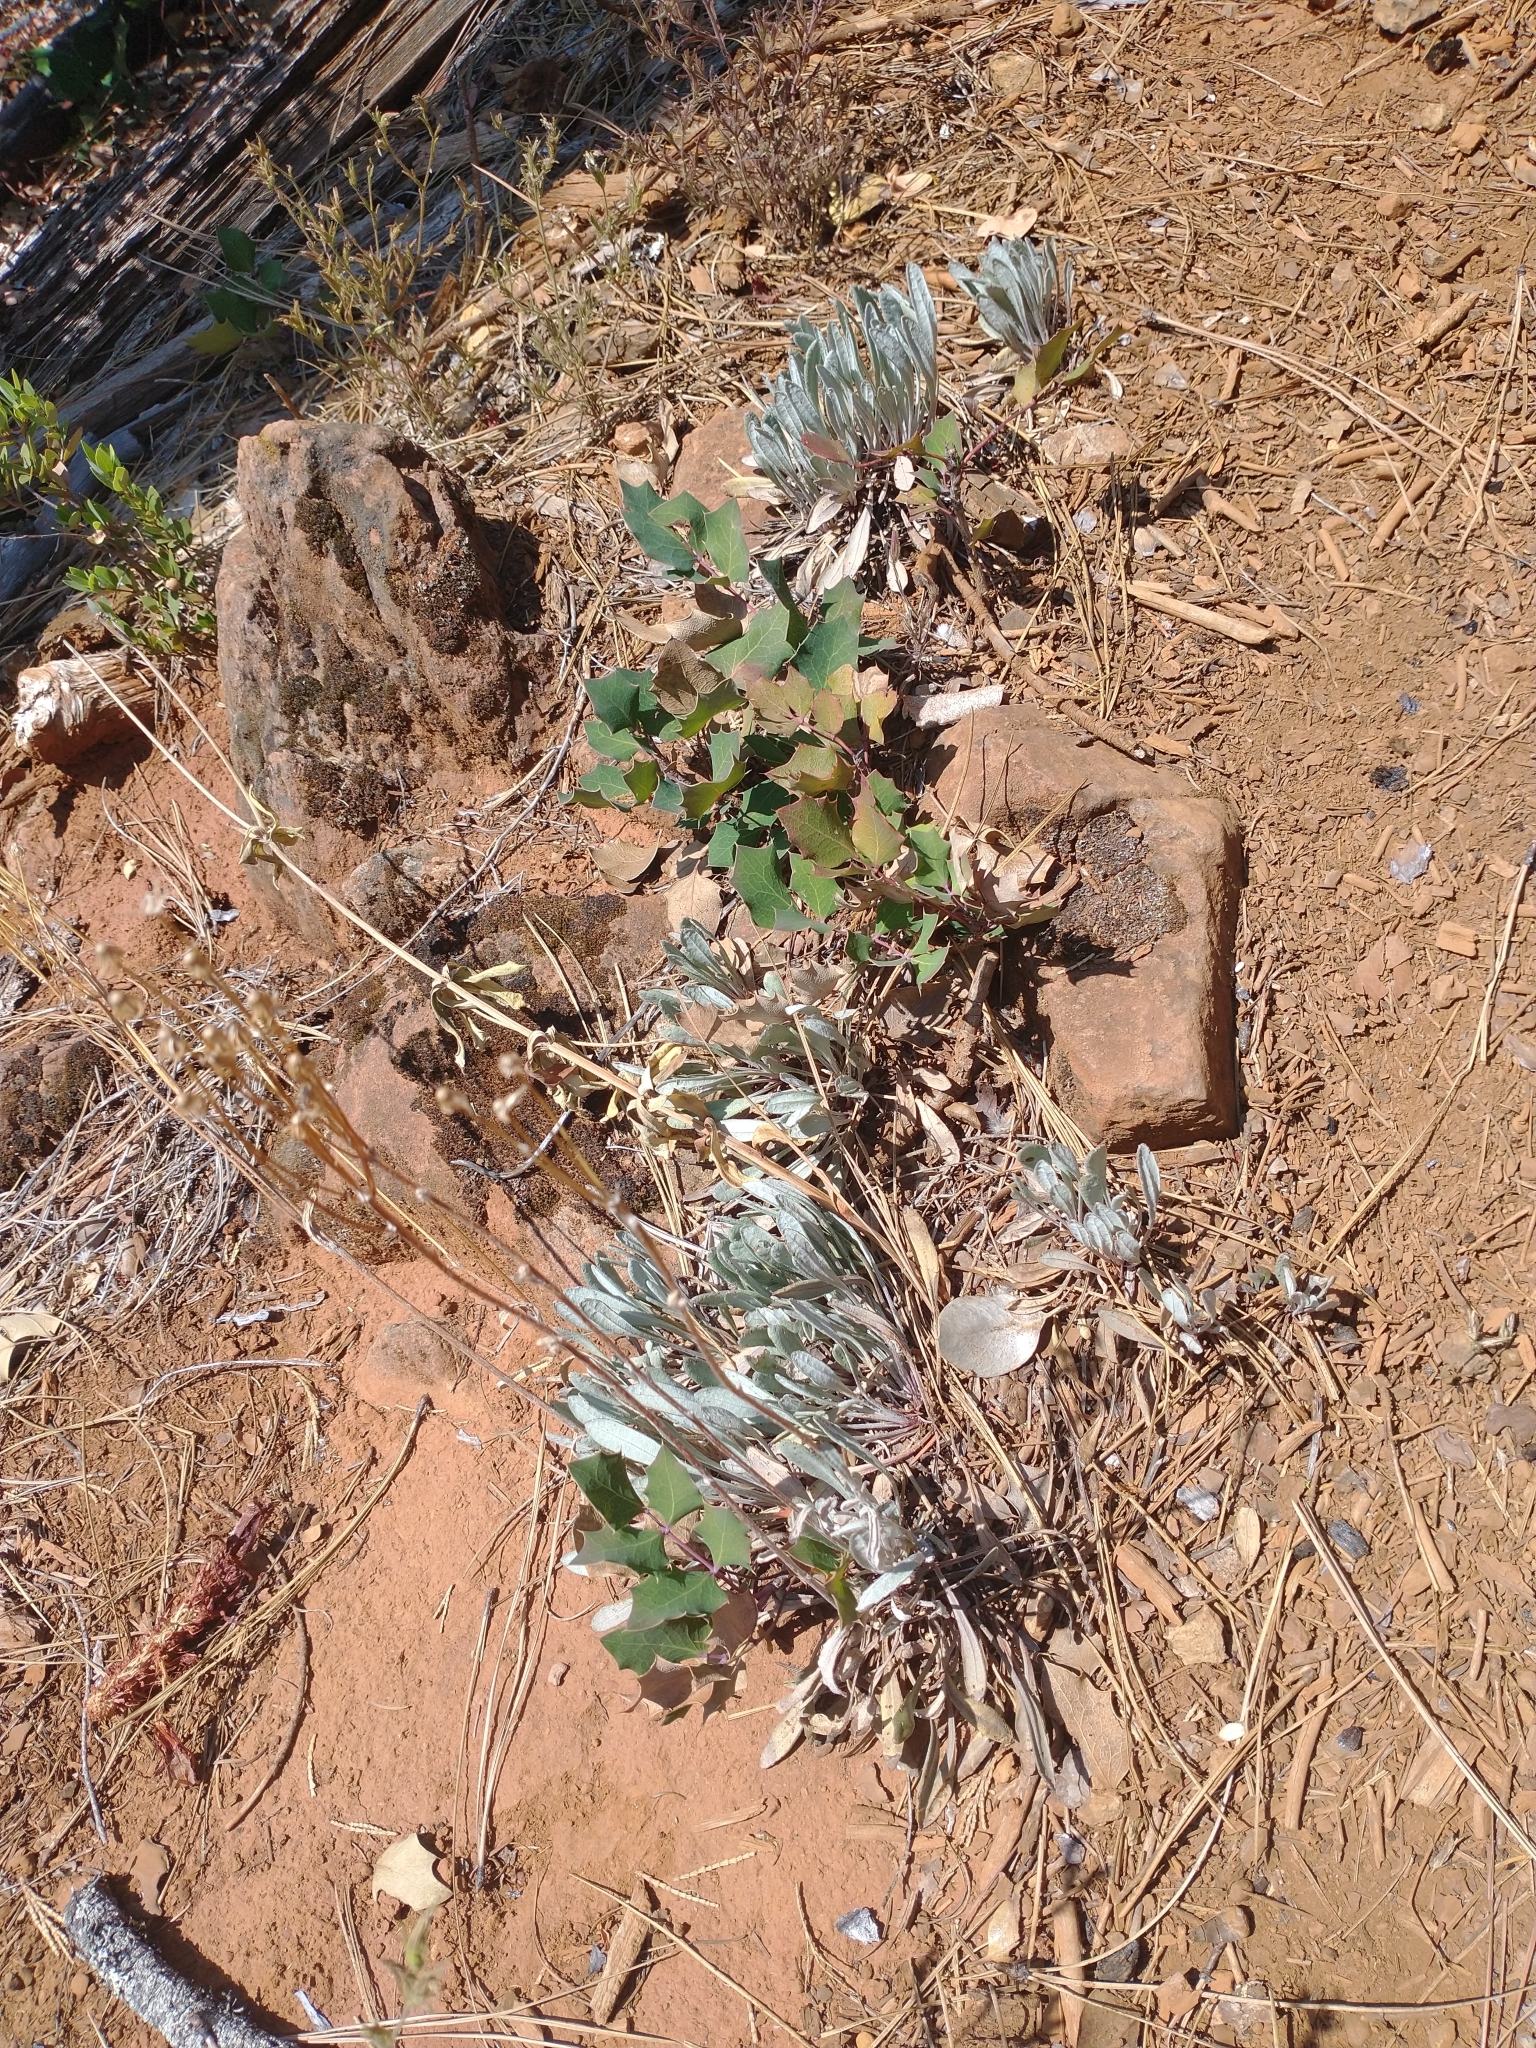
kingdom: Plantae
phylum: Tracheophyta
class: Magnoliopsida
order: Ranunculales
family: Berberidaceae
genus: Mahonia
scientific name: Mahonia repens
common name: Creeping oregon-grape
